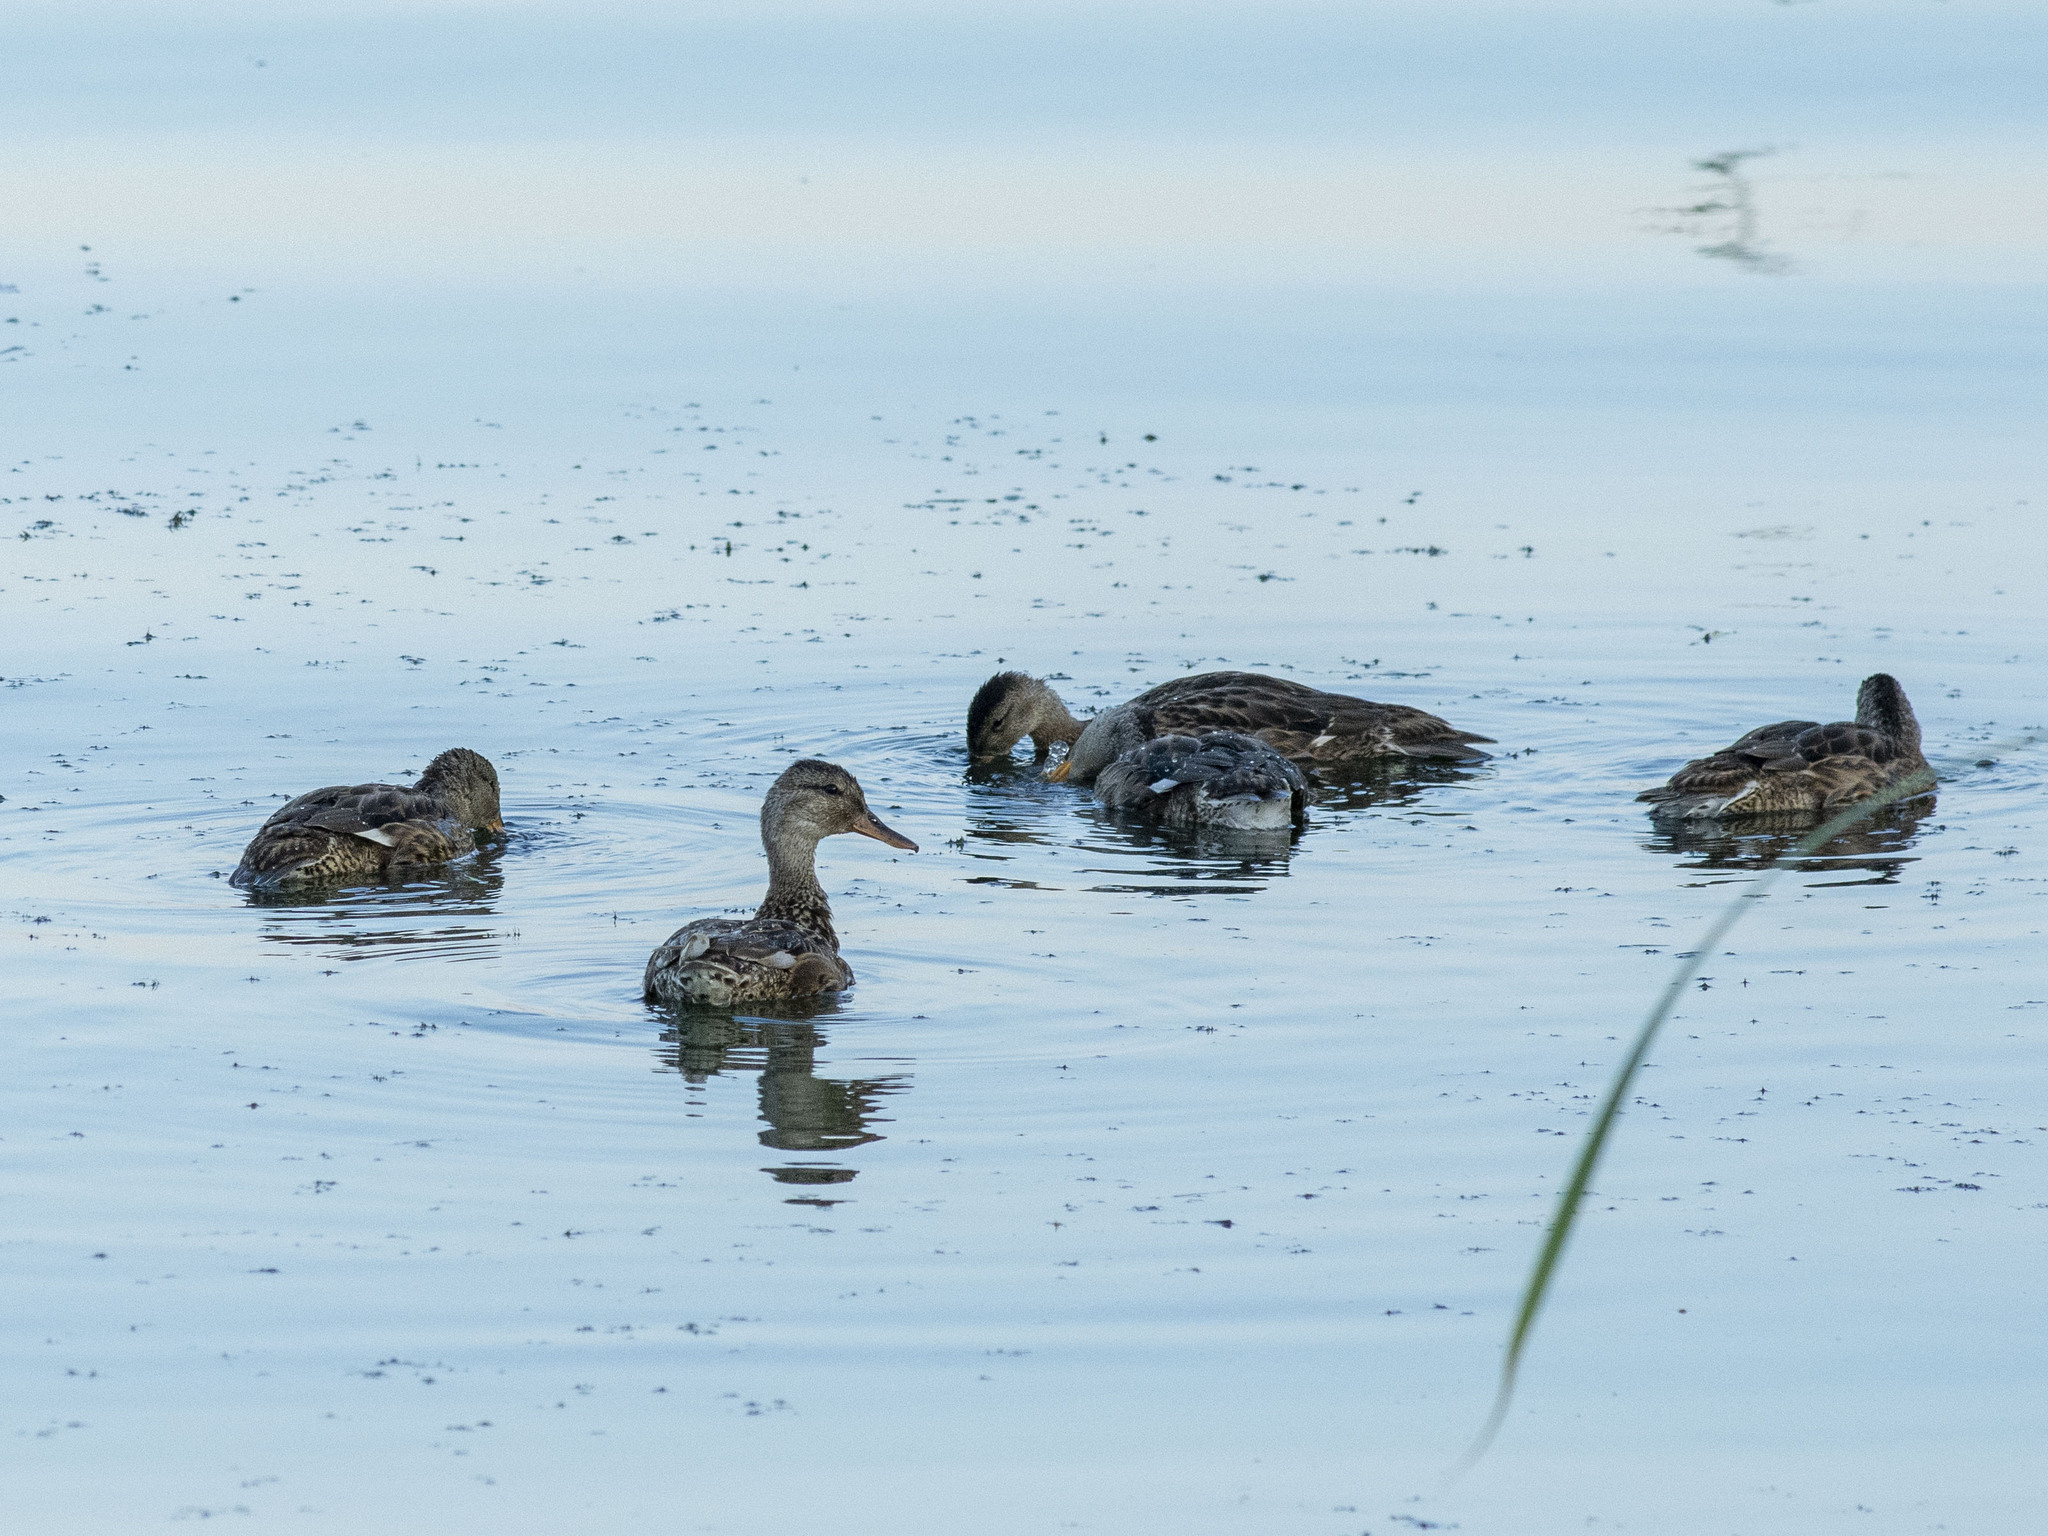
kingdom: Animalia
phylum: Chordata
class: Aves
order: Anseriformes
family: Anatidae
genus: Mareca
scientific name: Mareca strepera
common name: Gadwall
